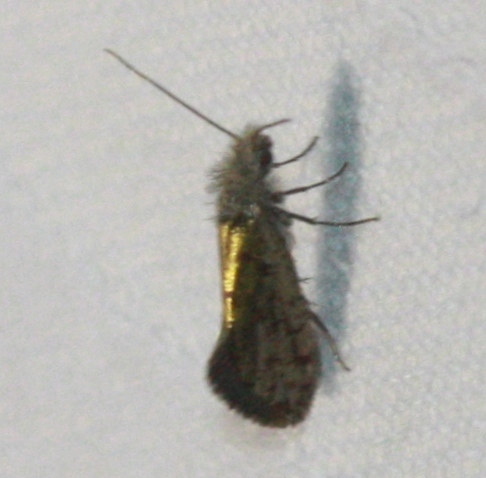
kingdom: Animalia
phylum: Arthropoda
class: Insecta
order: Lepidoptera
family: Eriocraniidae
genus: Dyseriocrania
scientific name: Dyseriocrania auricyanea
